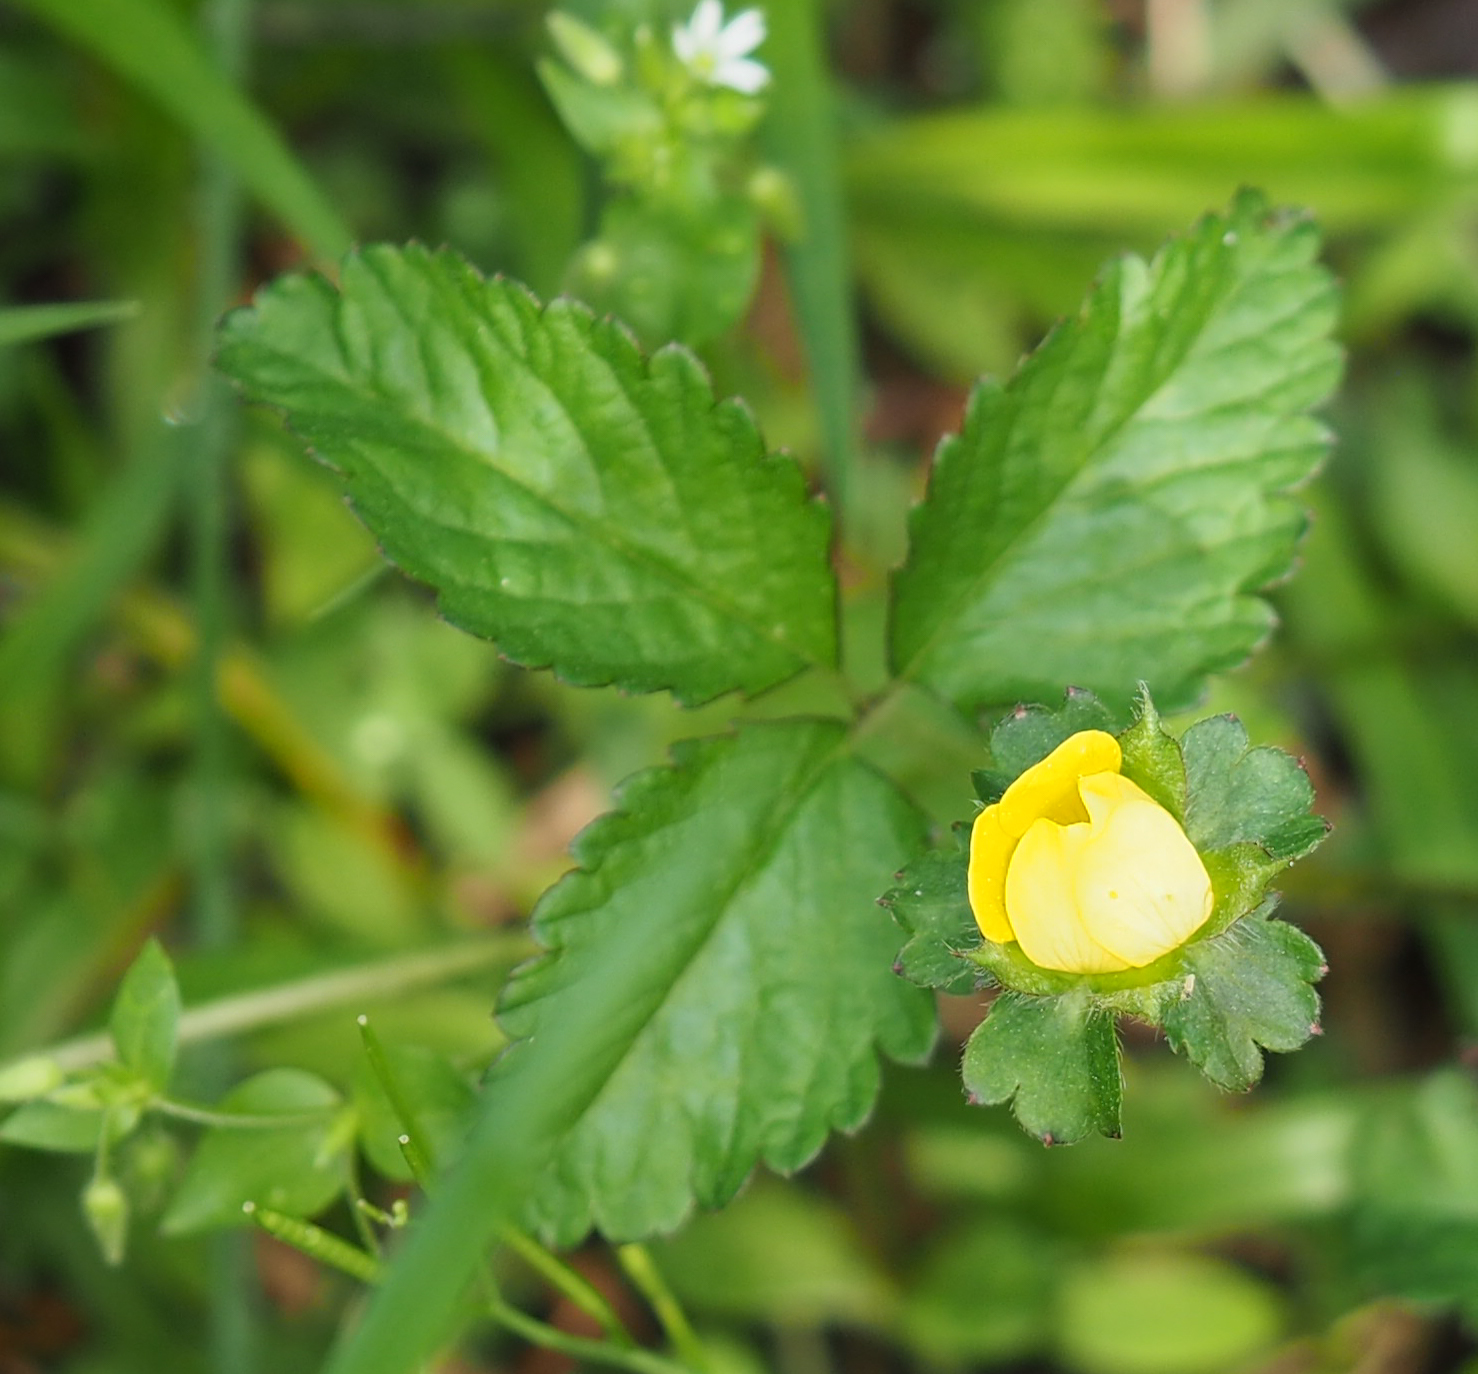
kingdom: Plantae
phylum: Tracheophyta
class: Magnoliopsida
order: Rosales
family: Rosaceae
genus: Potentilla
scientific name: Potentilla indica
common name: Yellow-flowered strawberry
